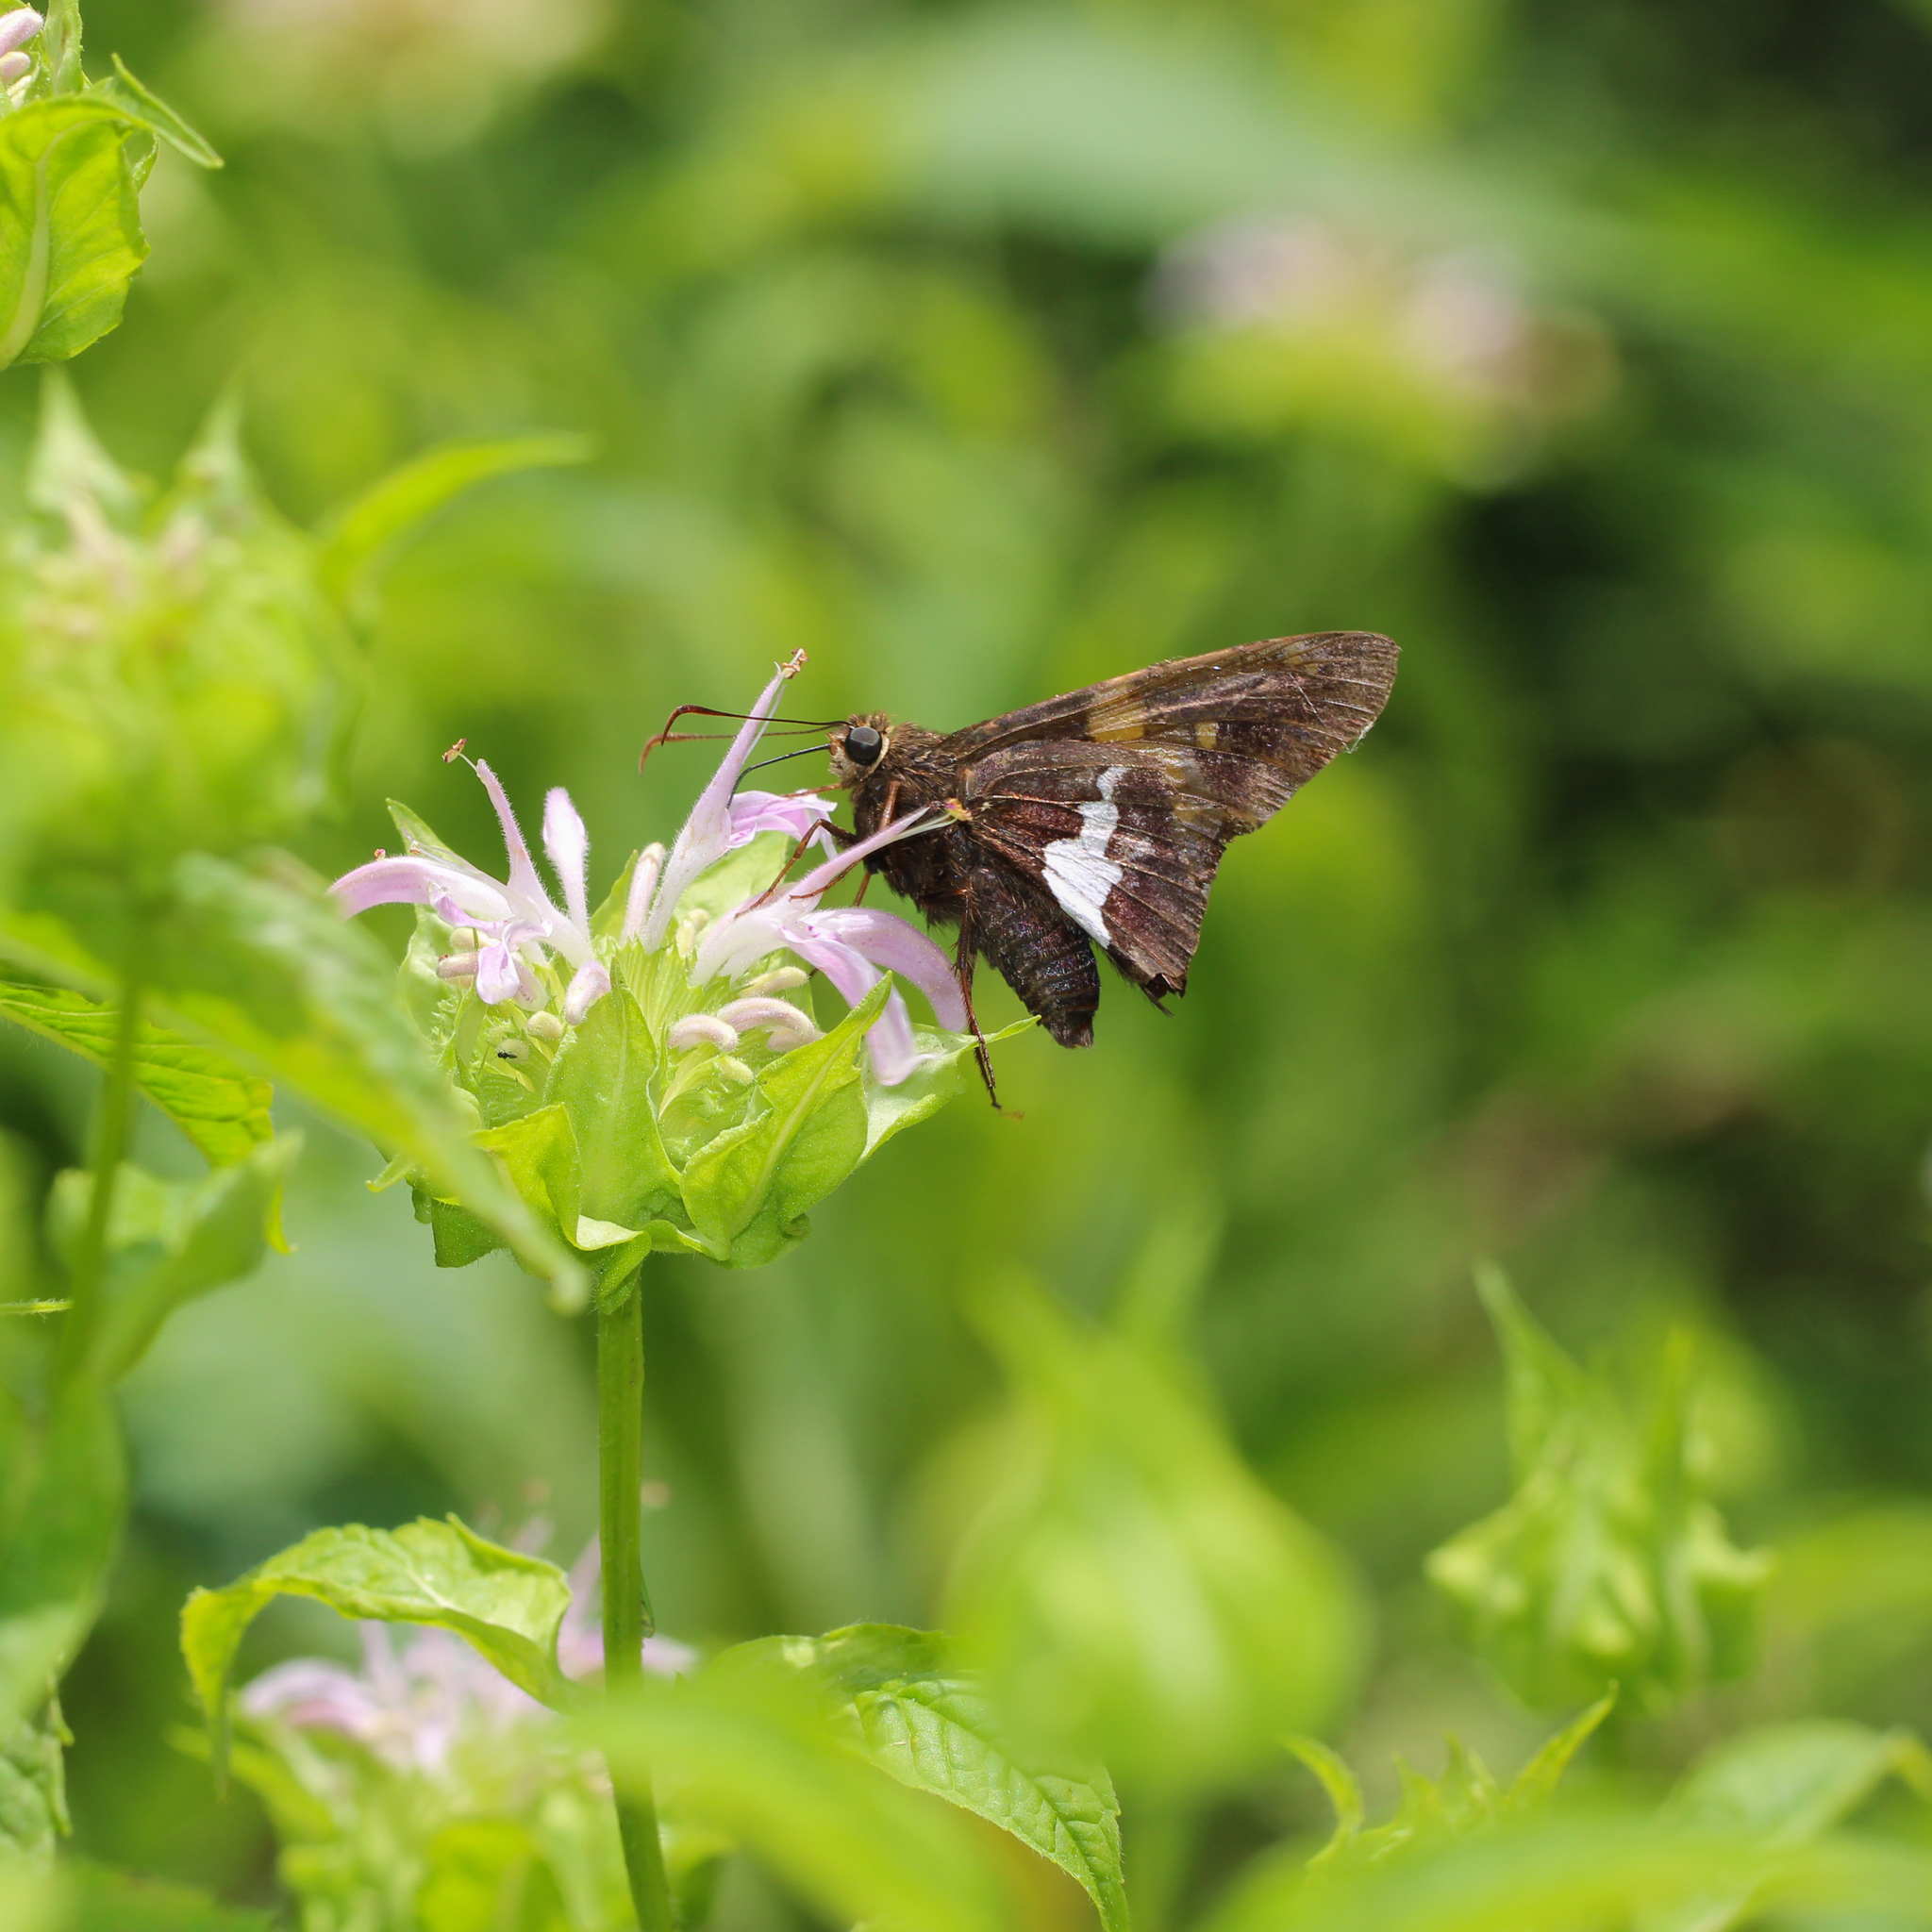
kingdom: Animalia
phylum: Arthropoda
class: Insecta
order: Lepidoptera
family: Hesperiidae
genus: Epargyreus
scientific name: Epargyreus clarus
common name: Silver-spotted skipper
